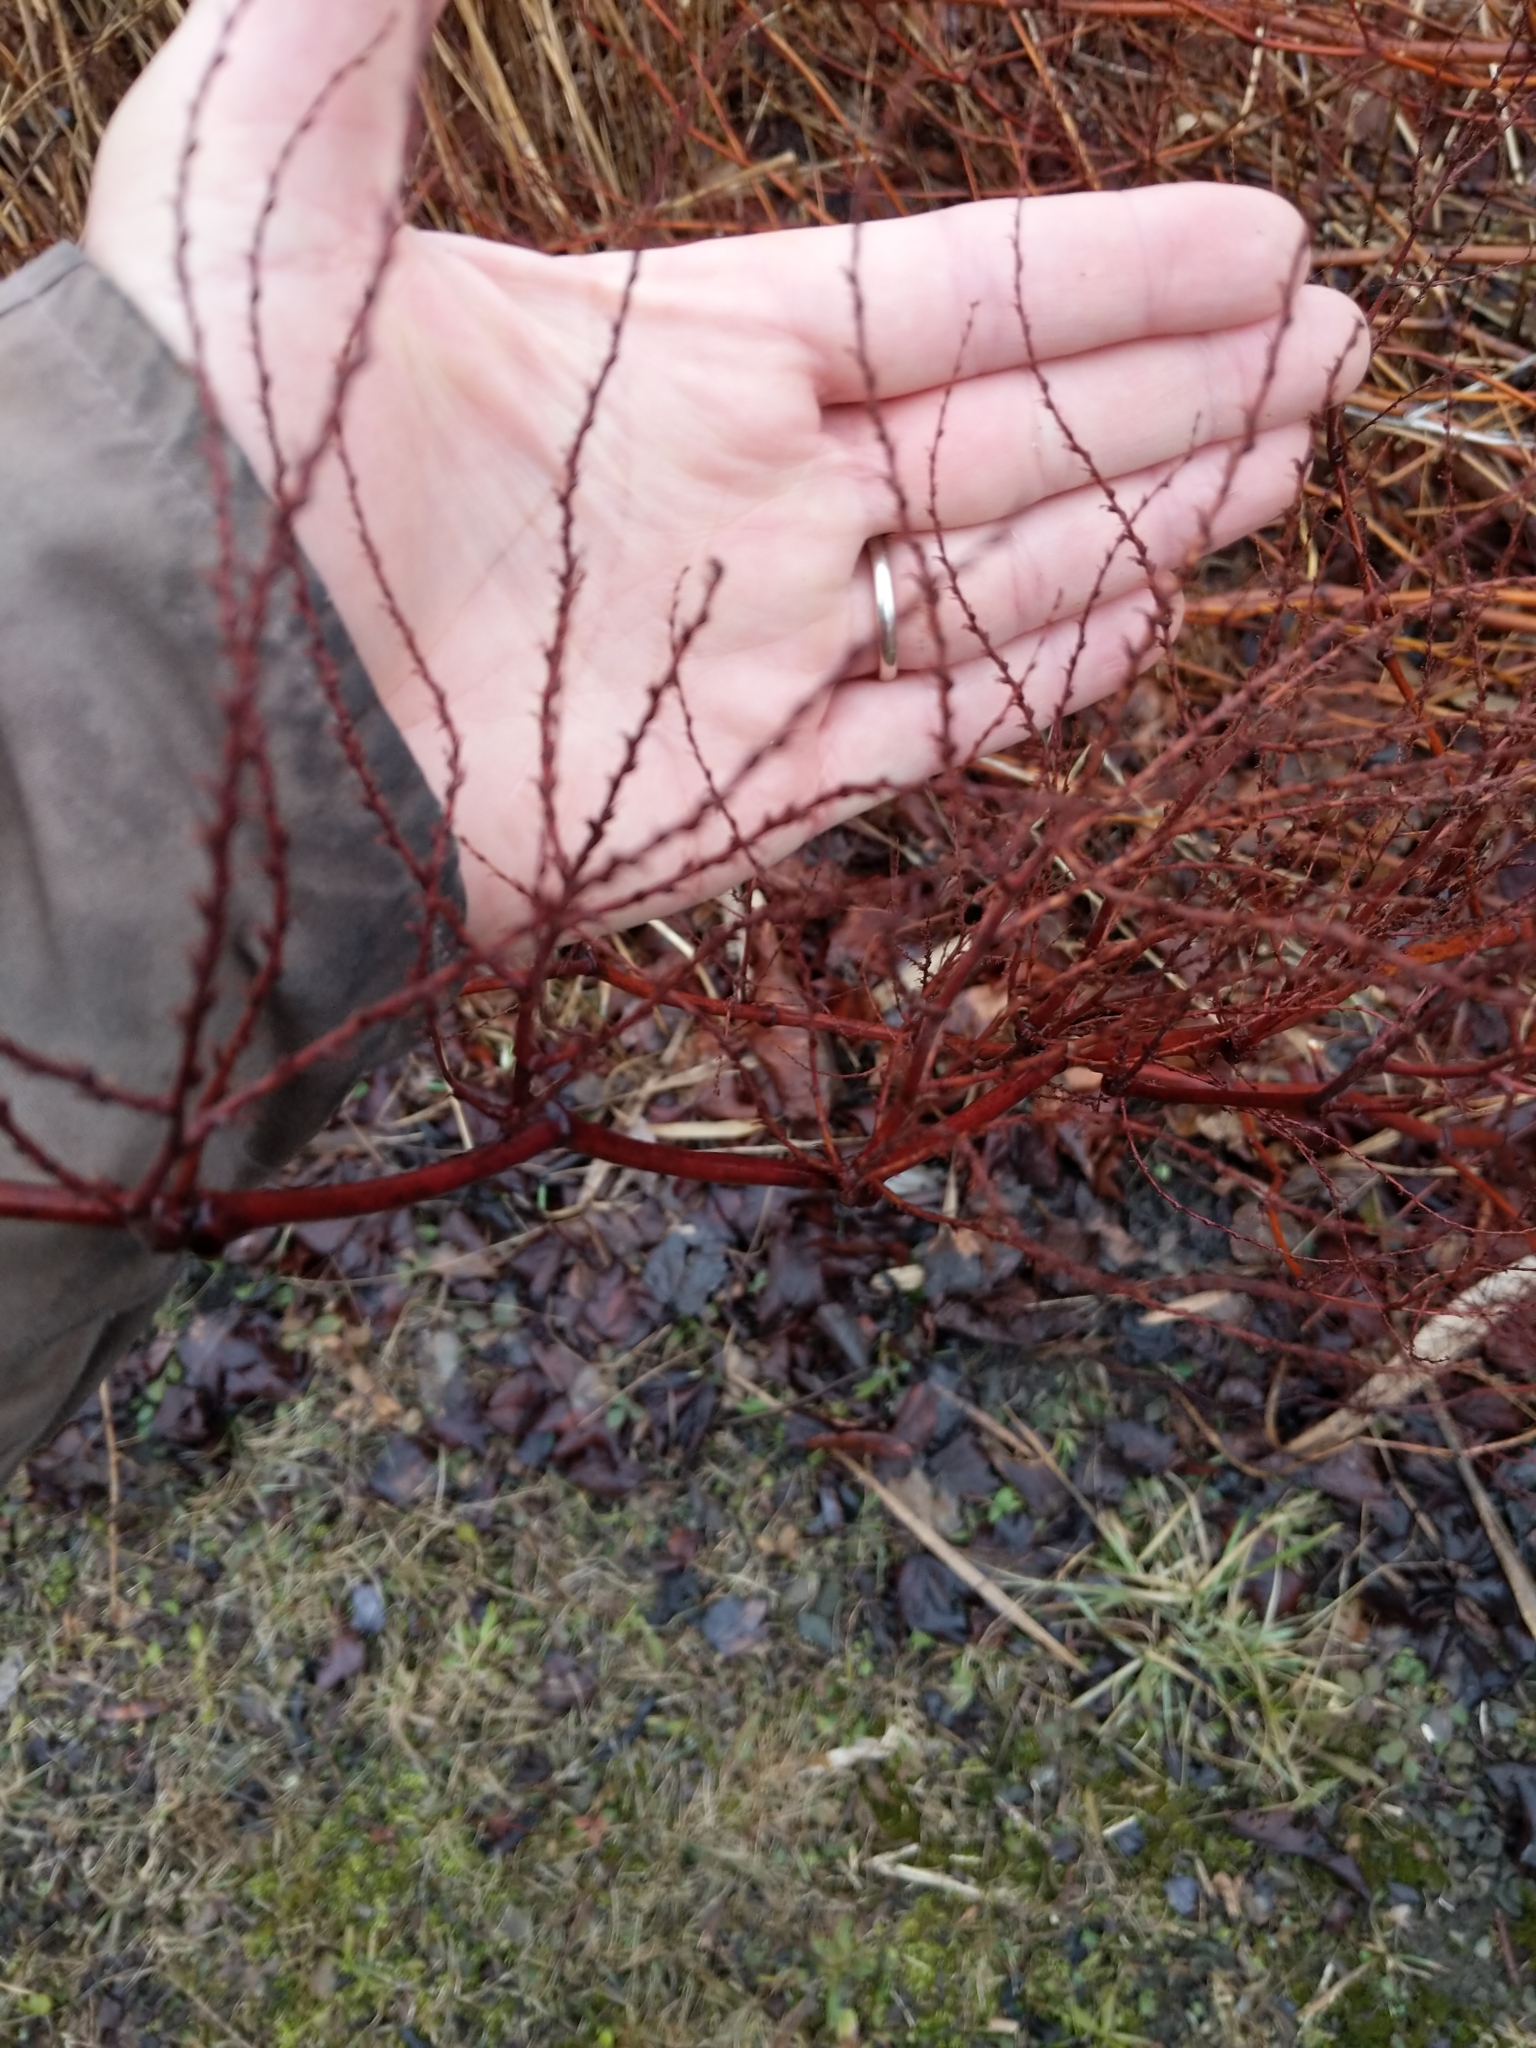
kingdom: Plantae
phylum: Tracheophyta
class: Magnoliopsida
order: Caryophyllales
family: Polygonaceae
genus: Reynoutria
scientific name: Reynoutria japonica
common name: Japanese knotweed
